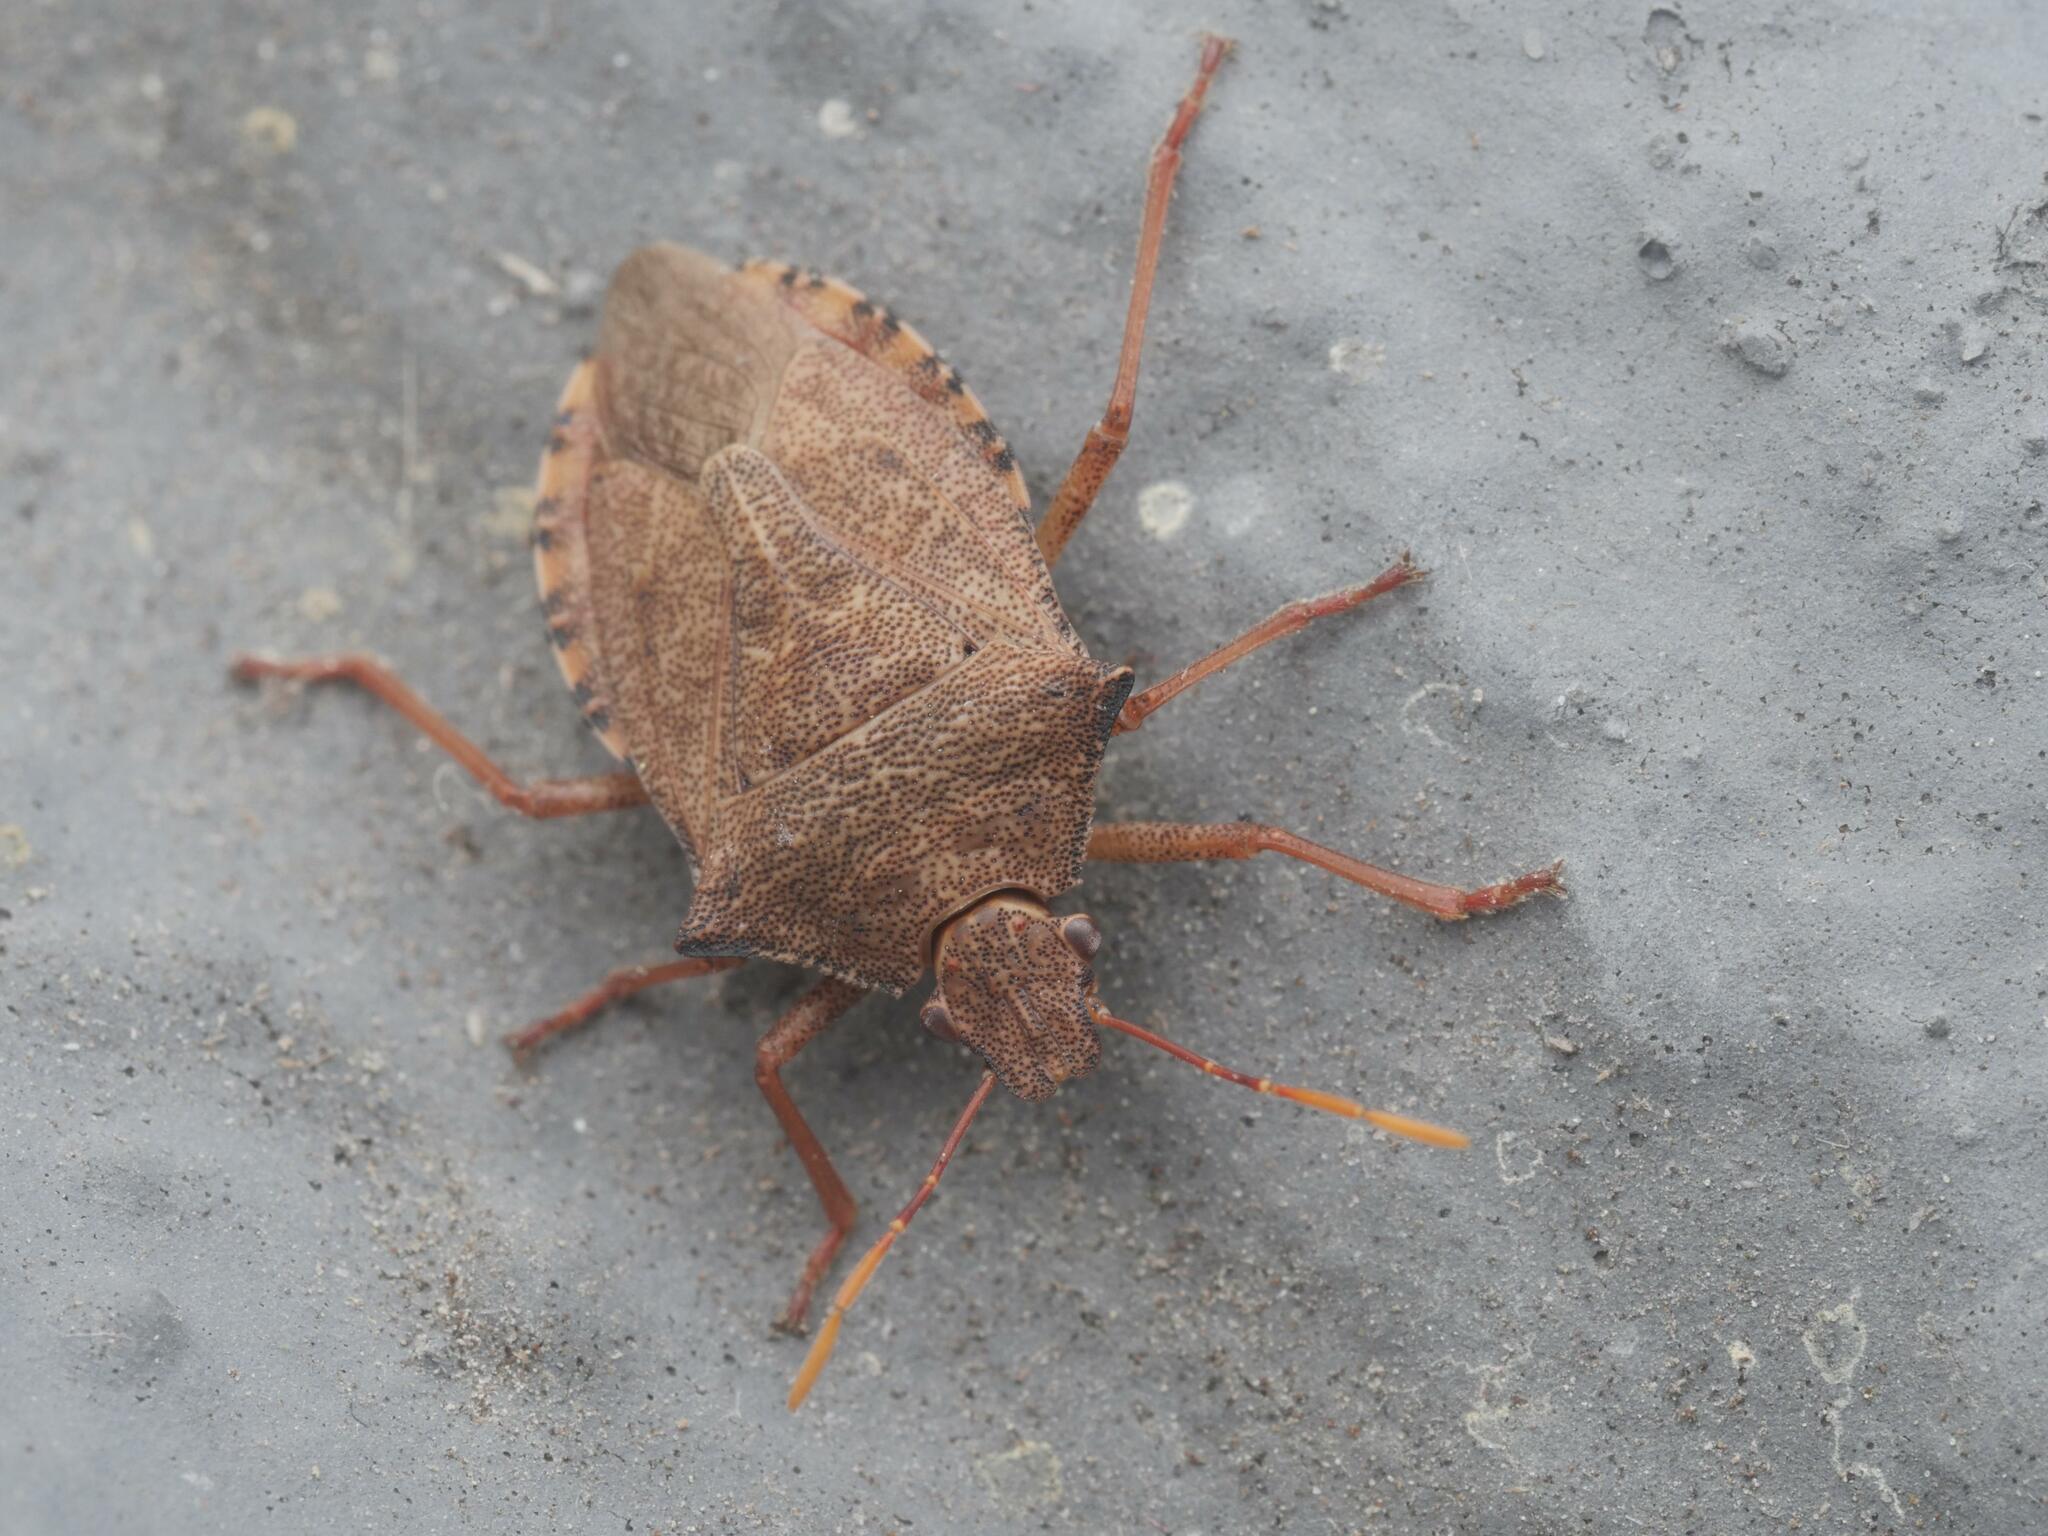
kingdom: Animalia
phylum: Arthropoda
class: Insecta
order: Hemiptera
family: Pentatomidae
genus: Arma
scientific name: Arma custos
